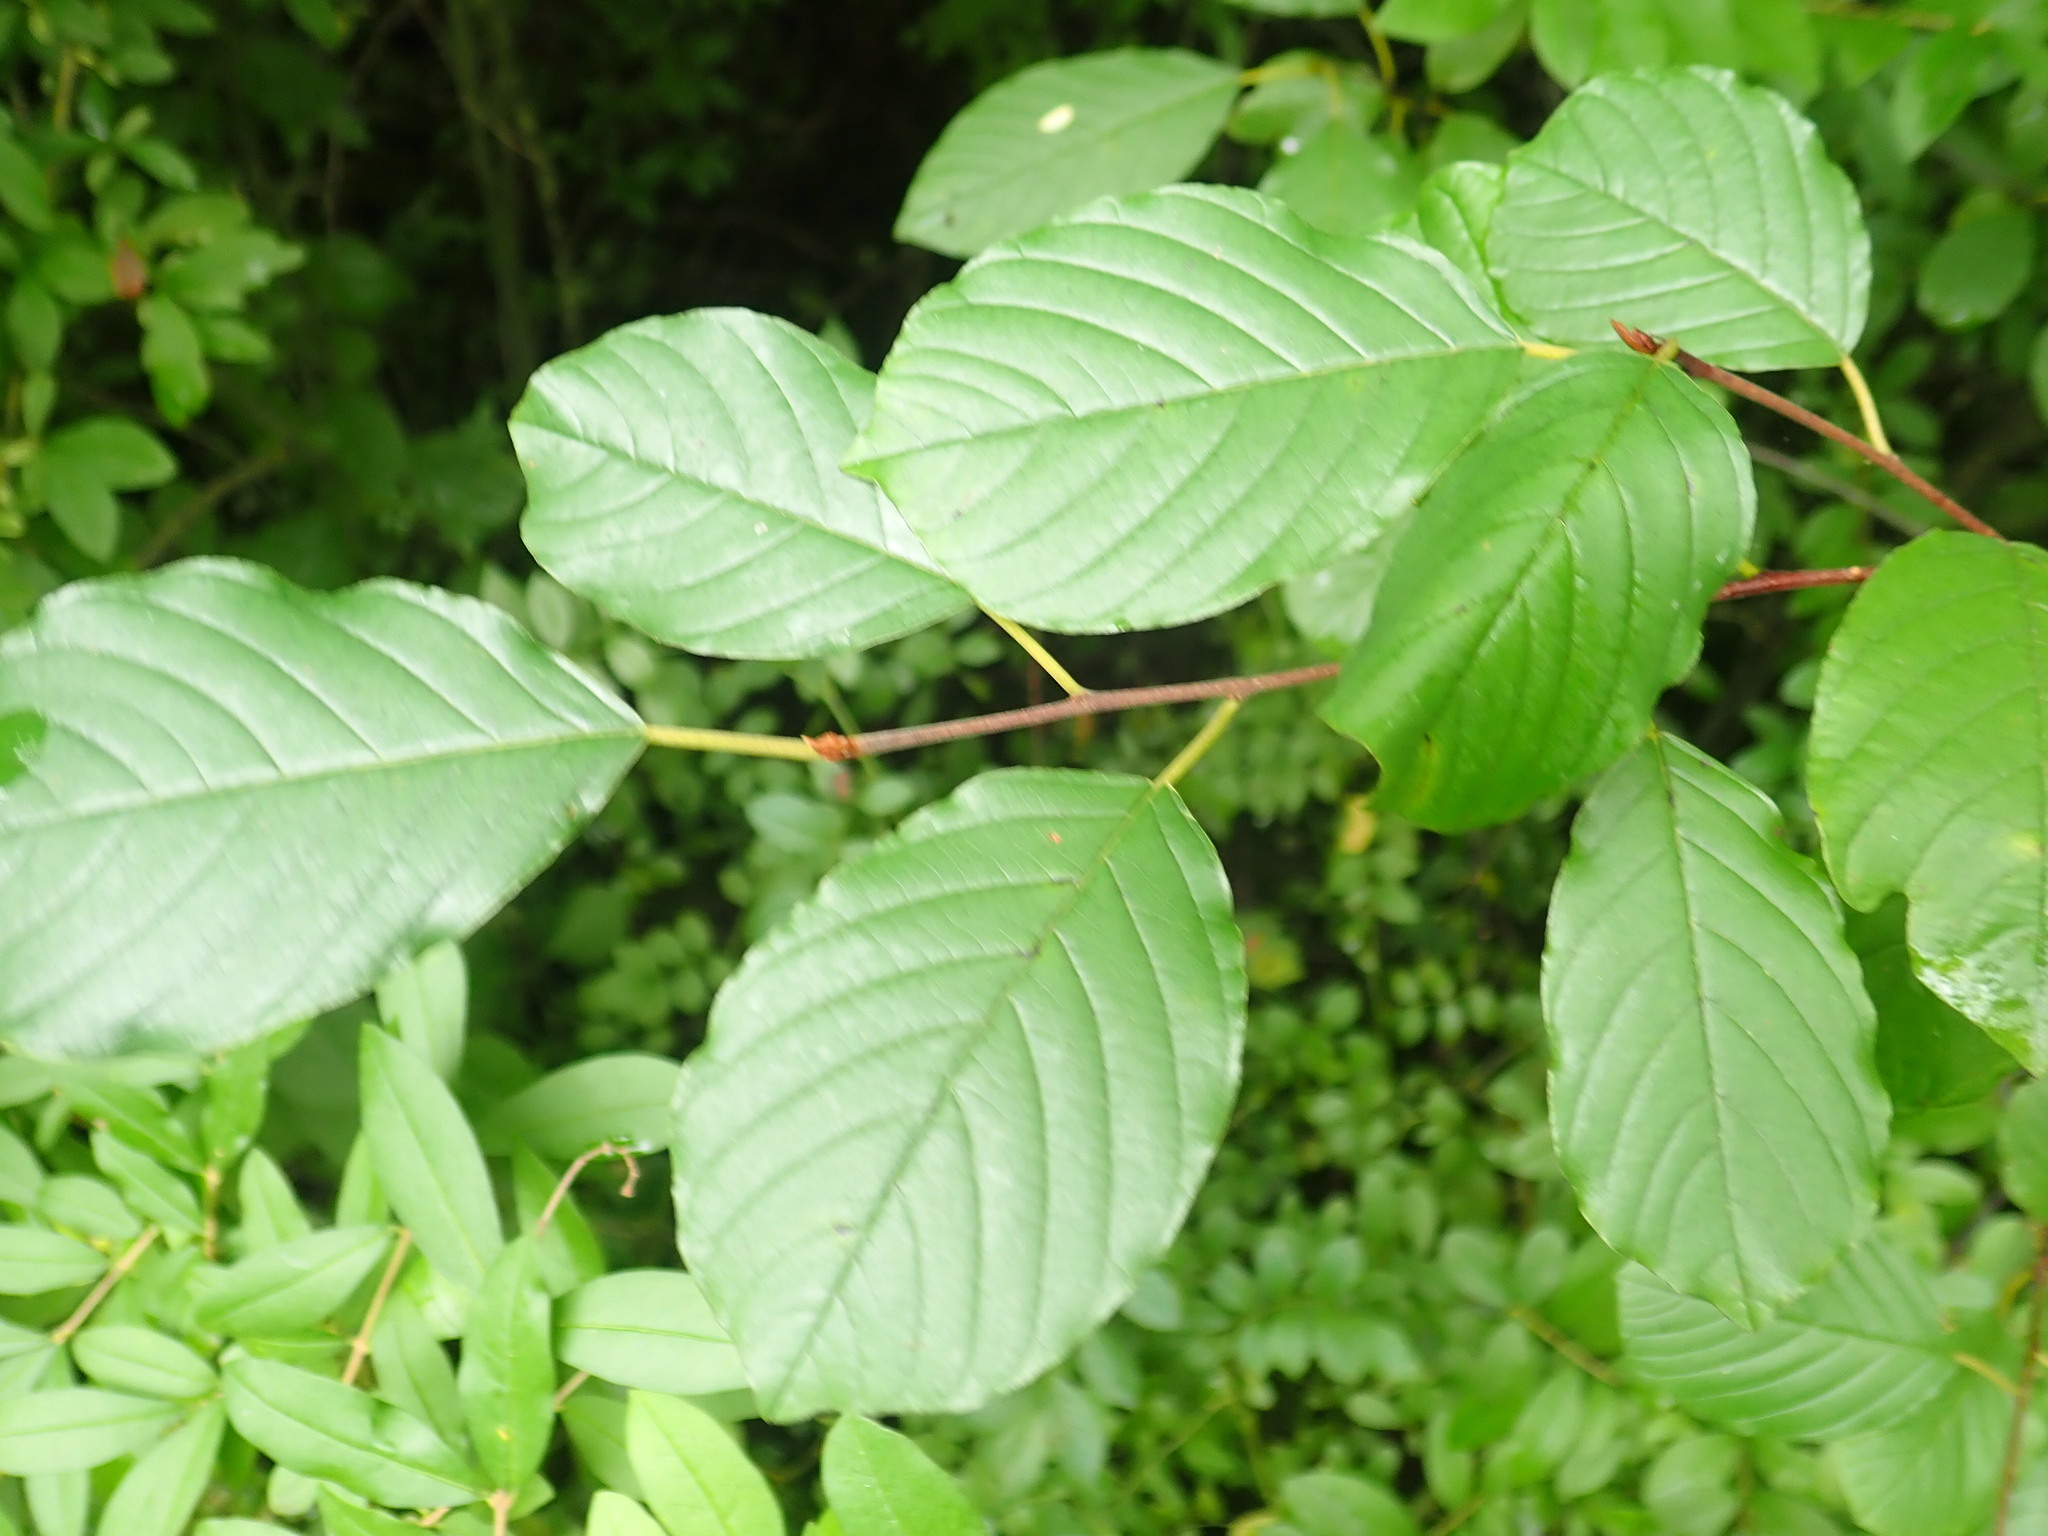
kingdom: Plantae
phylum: Tracheophyta
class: Magnoliopsida
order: Rosales
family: Rhamnaceae
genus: Frangula
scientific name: Frangula alnus
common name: Alder buckthorn
